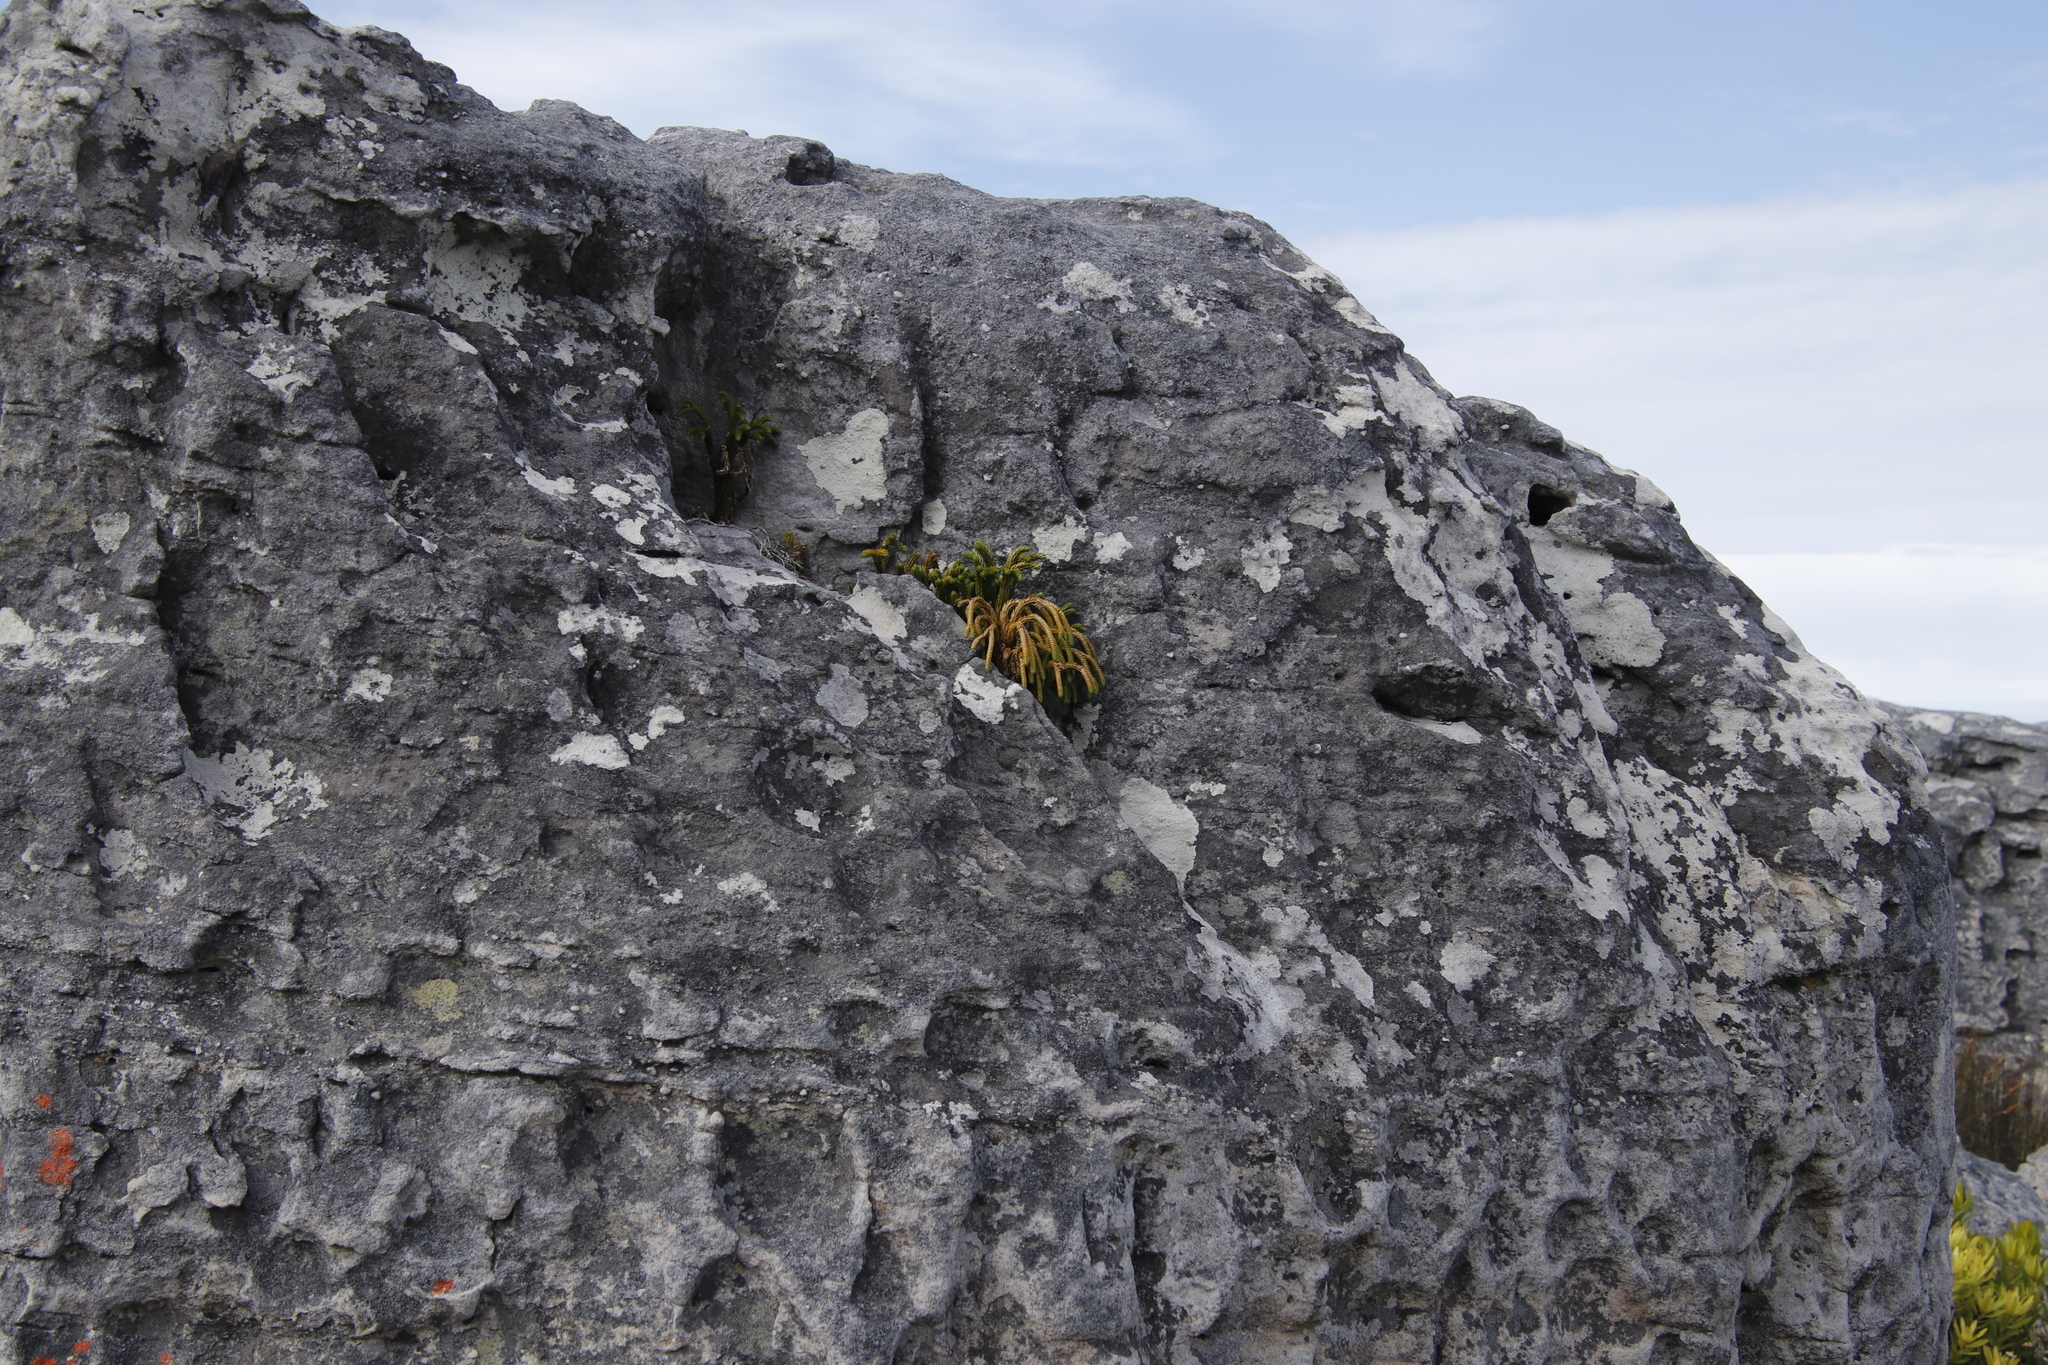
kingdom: Plantae
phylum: Tracheophyta
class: Lycopodiopsida
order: Lycopodiales
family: Lycopodiaceae
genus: Phlegmariurus
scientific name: Phlegmariurus gnidioides
